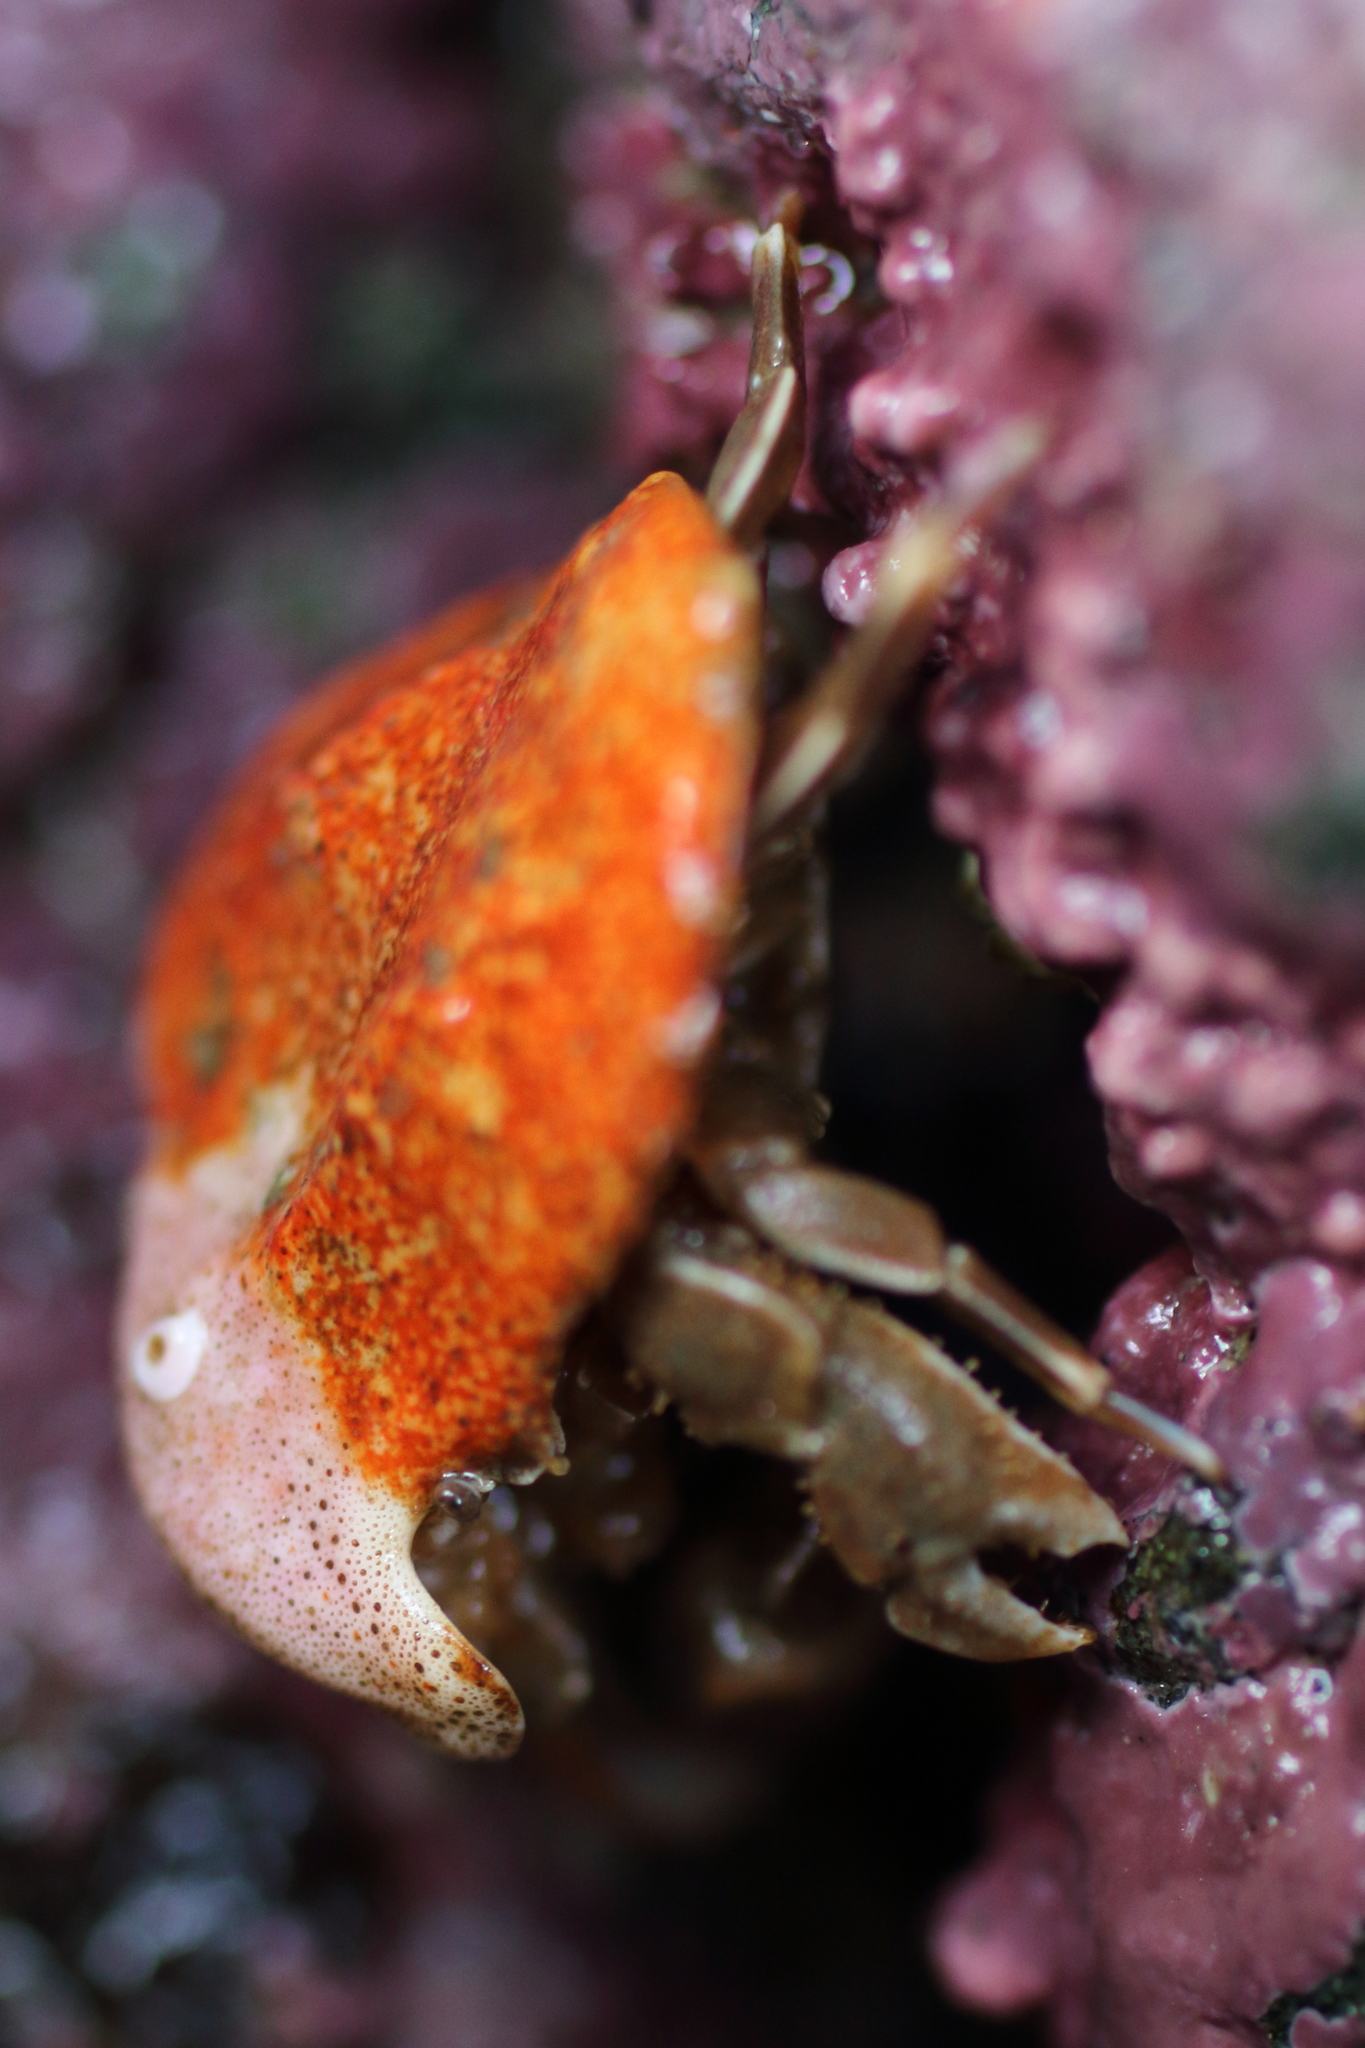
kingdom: Animalia
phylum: Arthropoda
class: Malacostraca
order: Decapoda
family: Lithodidae
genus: Cryptolithodes
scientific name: Cryptolithodes typicus
